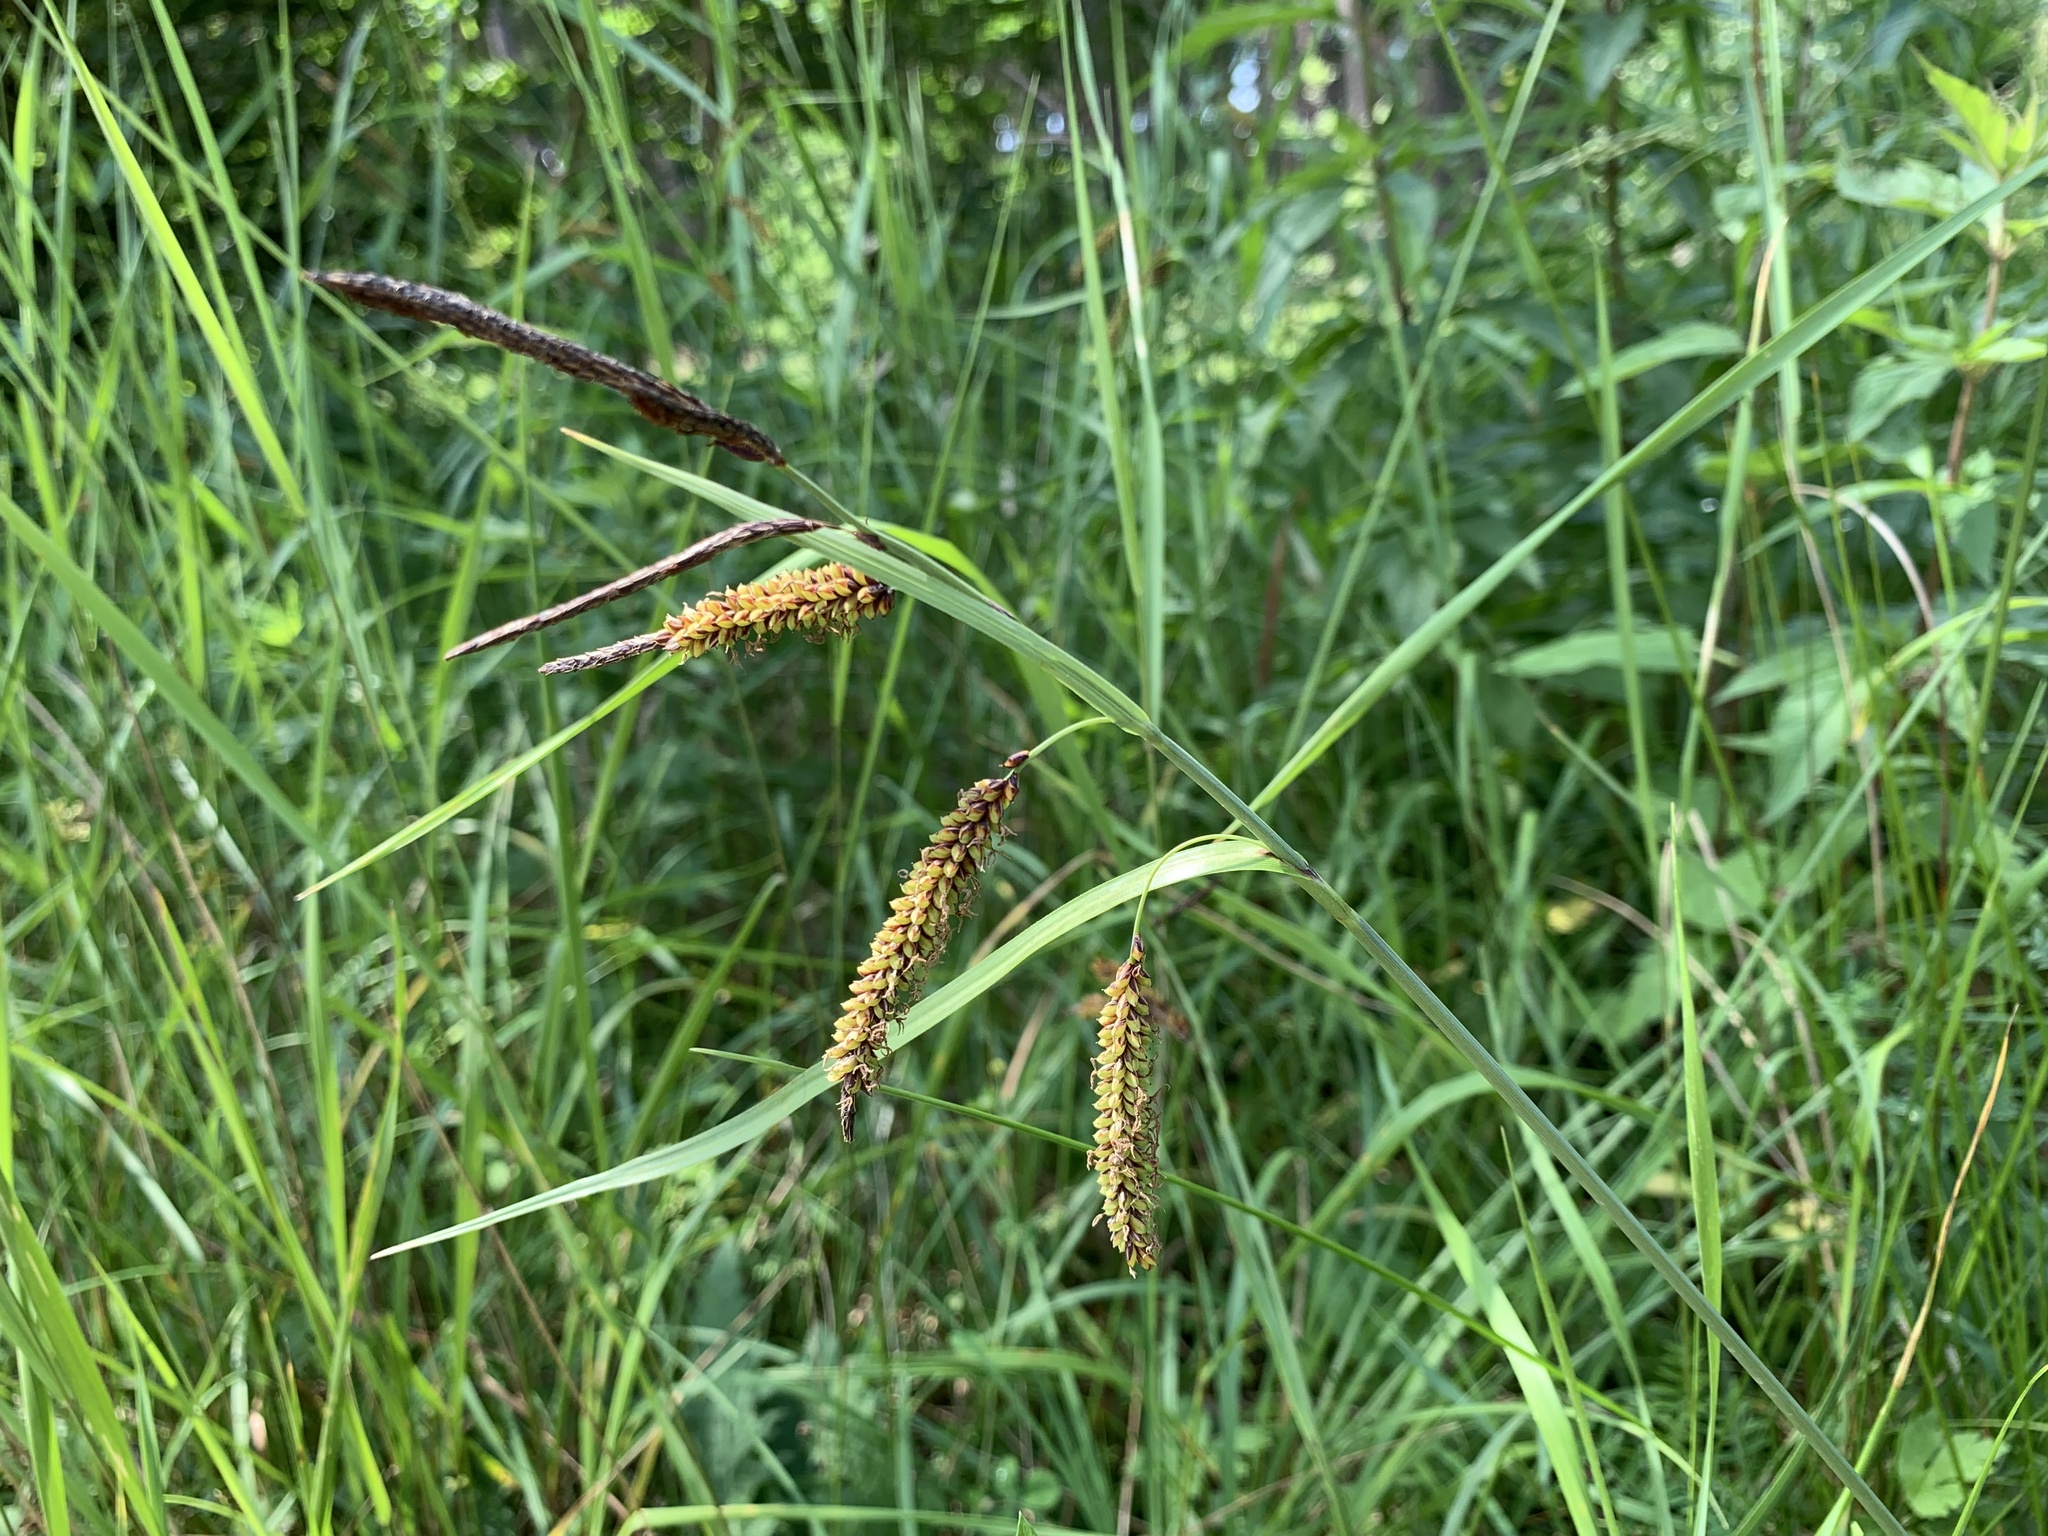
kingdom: Plantae
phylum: Tracheophyta
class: Liliopsida
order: Poales
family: Cyperaceae
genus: Carex
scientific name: Carex flacca
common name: Glaucous sedge
